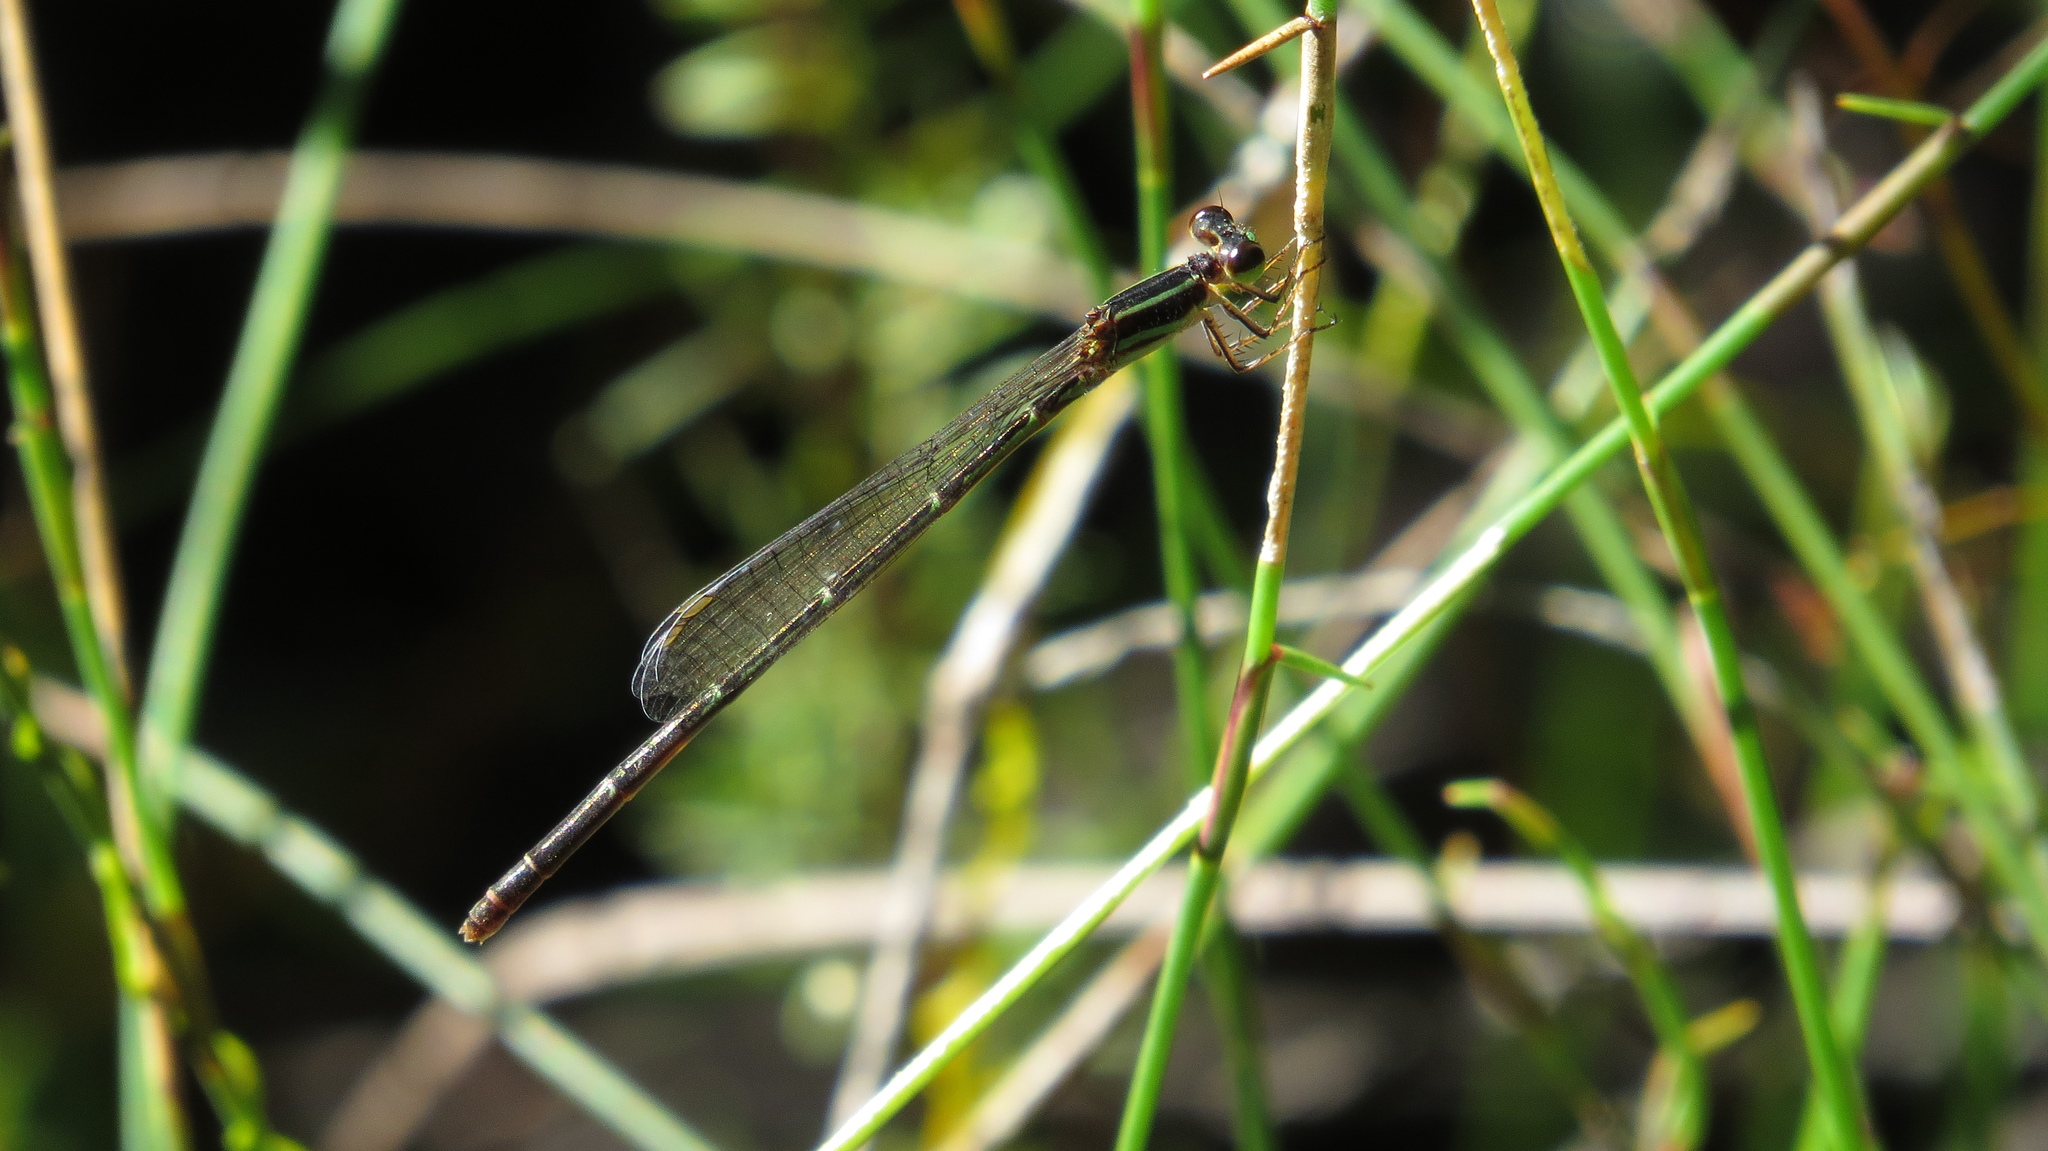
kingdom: Animalia
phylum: Arthropoda
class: Insecta
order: Odonata
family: Coenagrionidae
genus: Argiocnemis
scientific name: Argiocnemis rubescens
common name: Red-tipped shadefly
